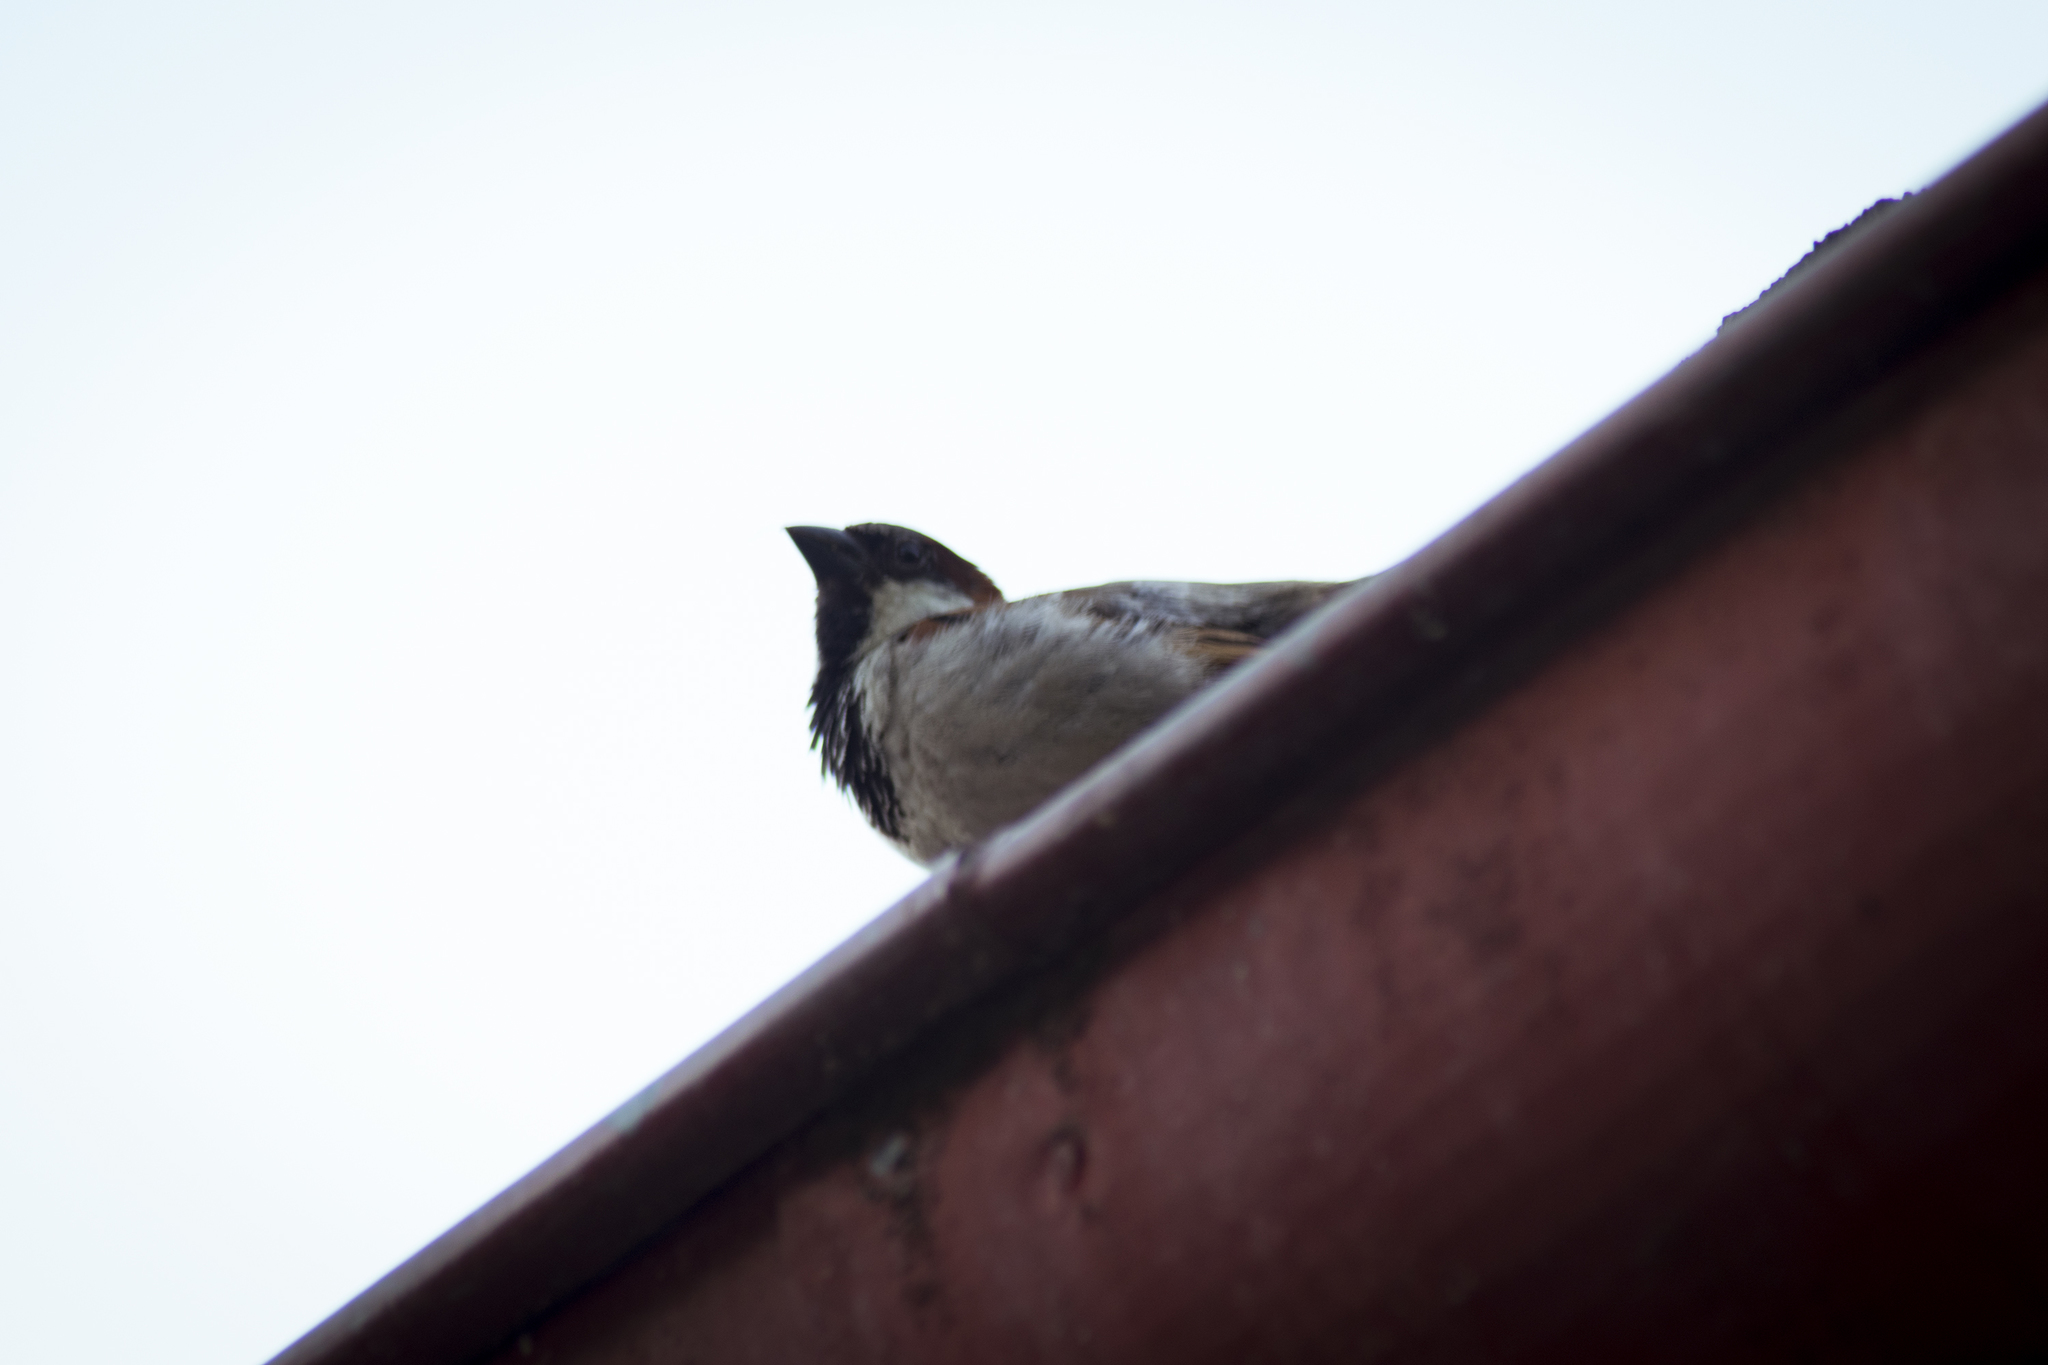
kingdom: Animalia
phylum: Chordata
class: Aves
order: Passeriformes
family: Passeridae
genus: Passer
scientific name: Passer domesticus
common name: House sparrow
